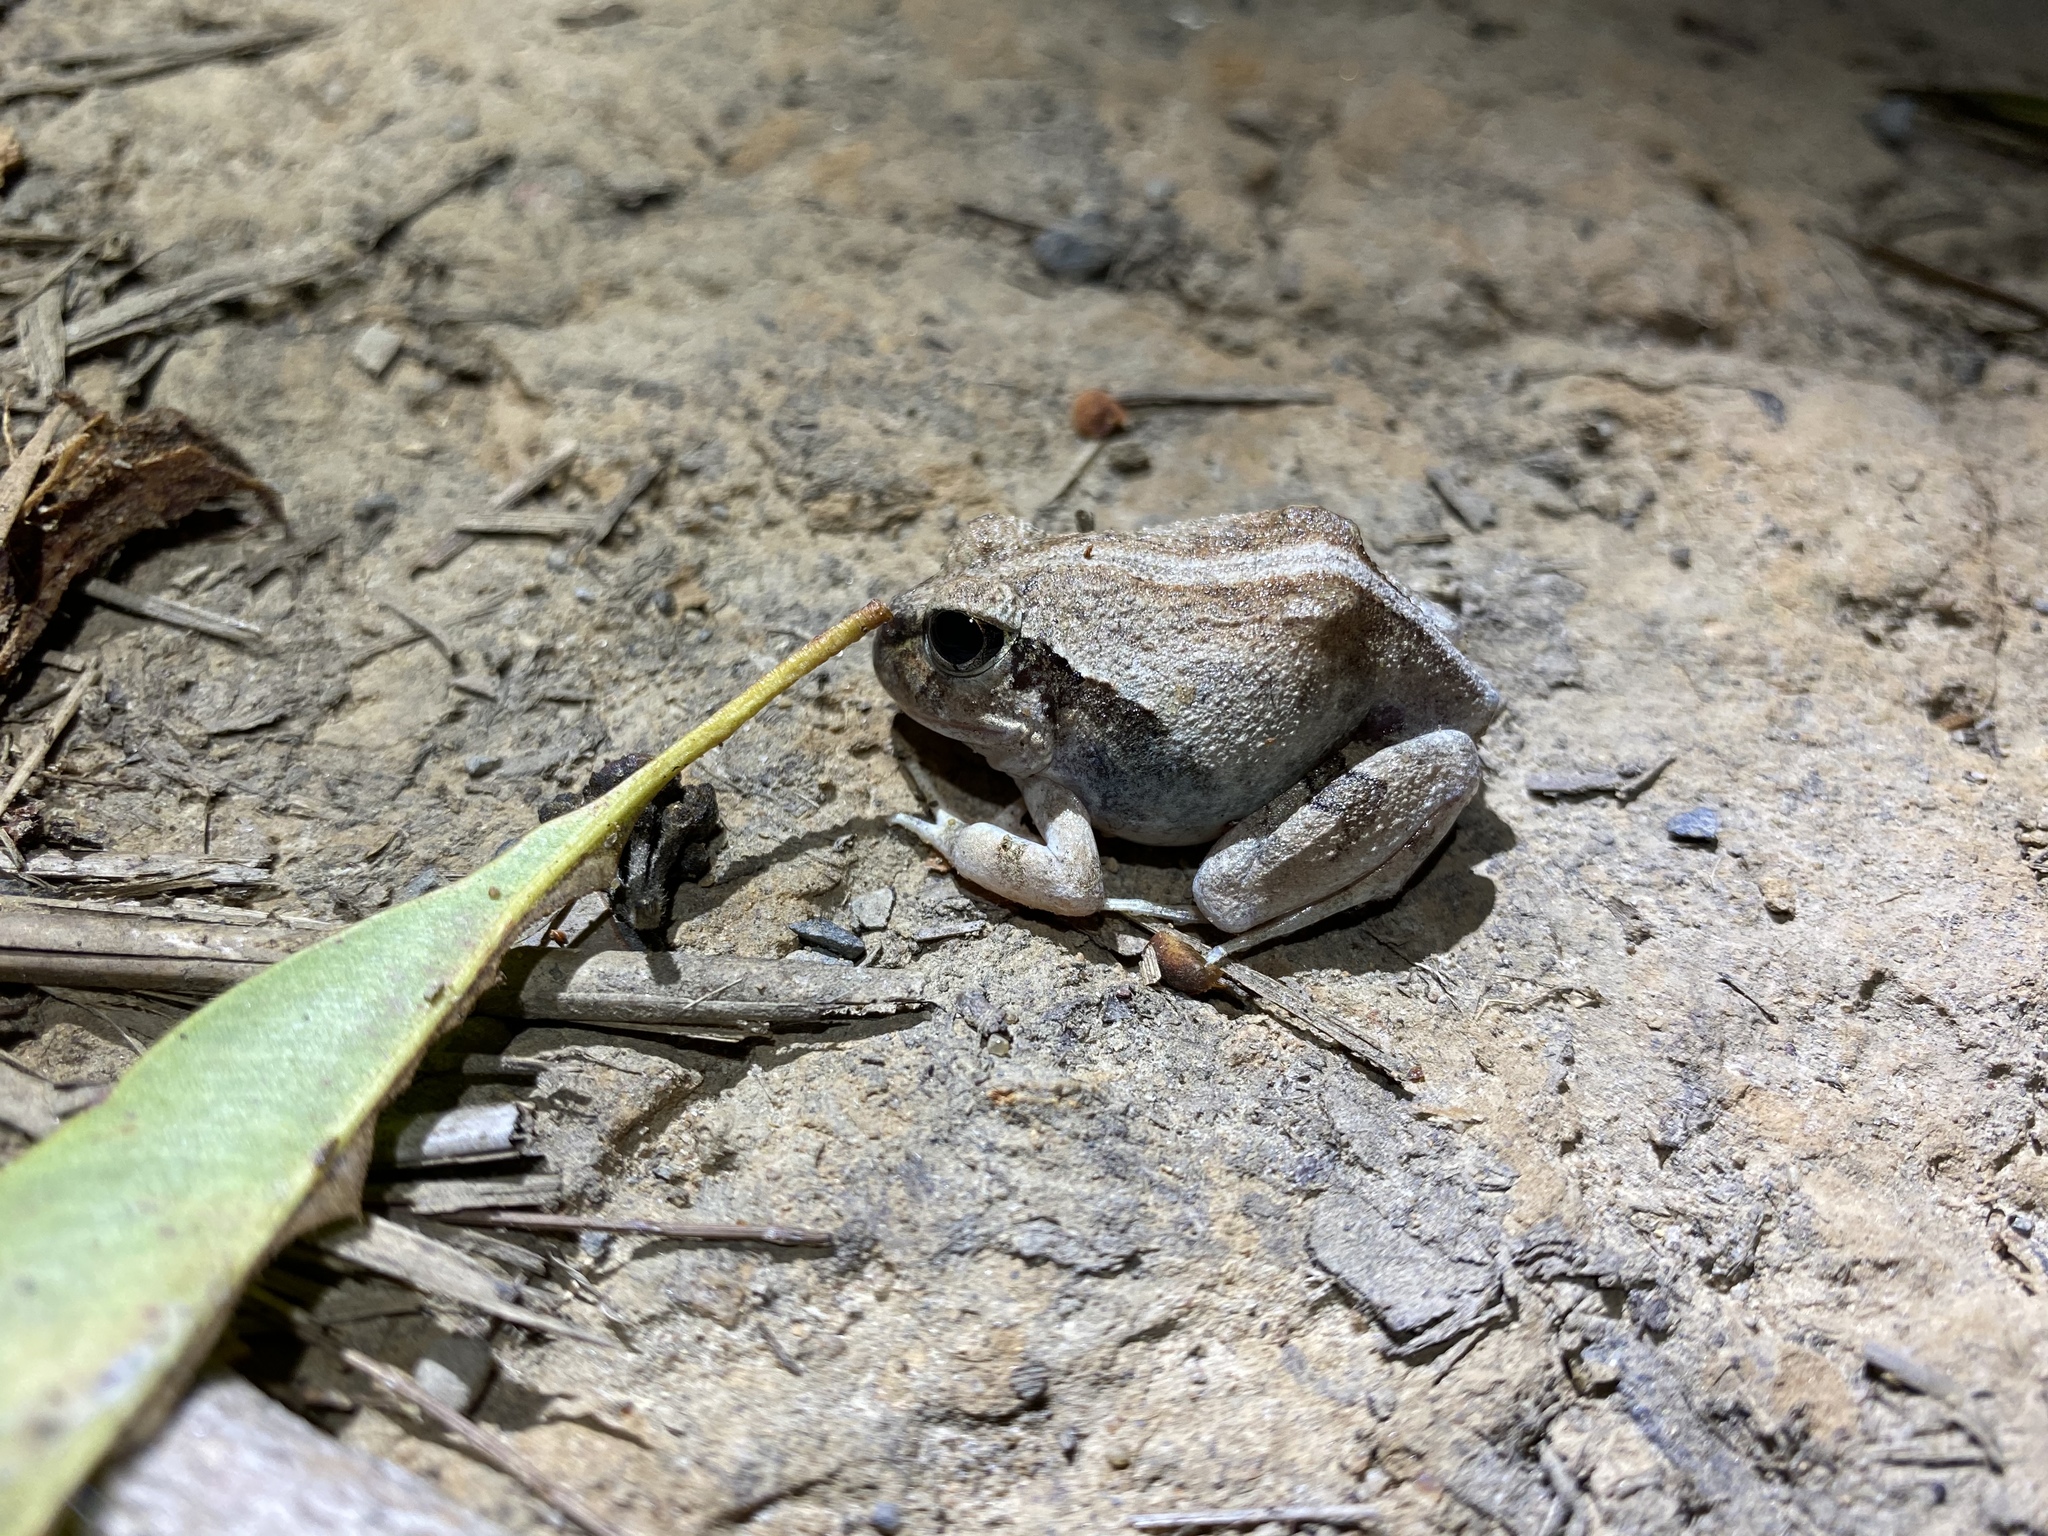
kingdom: Animalia
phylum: Chordata
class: Amphibia
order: Anura
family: Limnodynastidae
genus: Platyplectrum
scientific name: Platyplectrum ornatum
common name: Ornate burrowing frog
